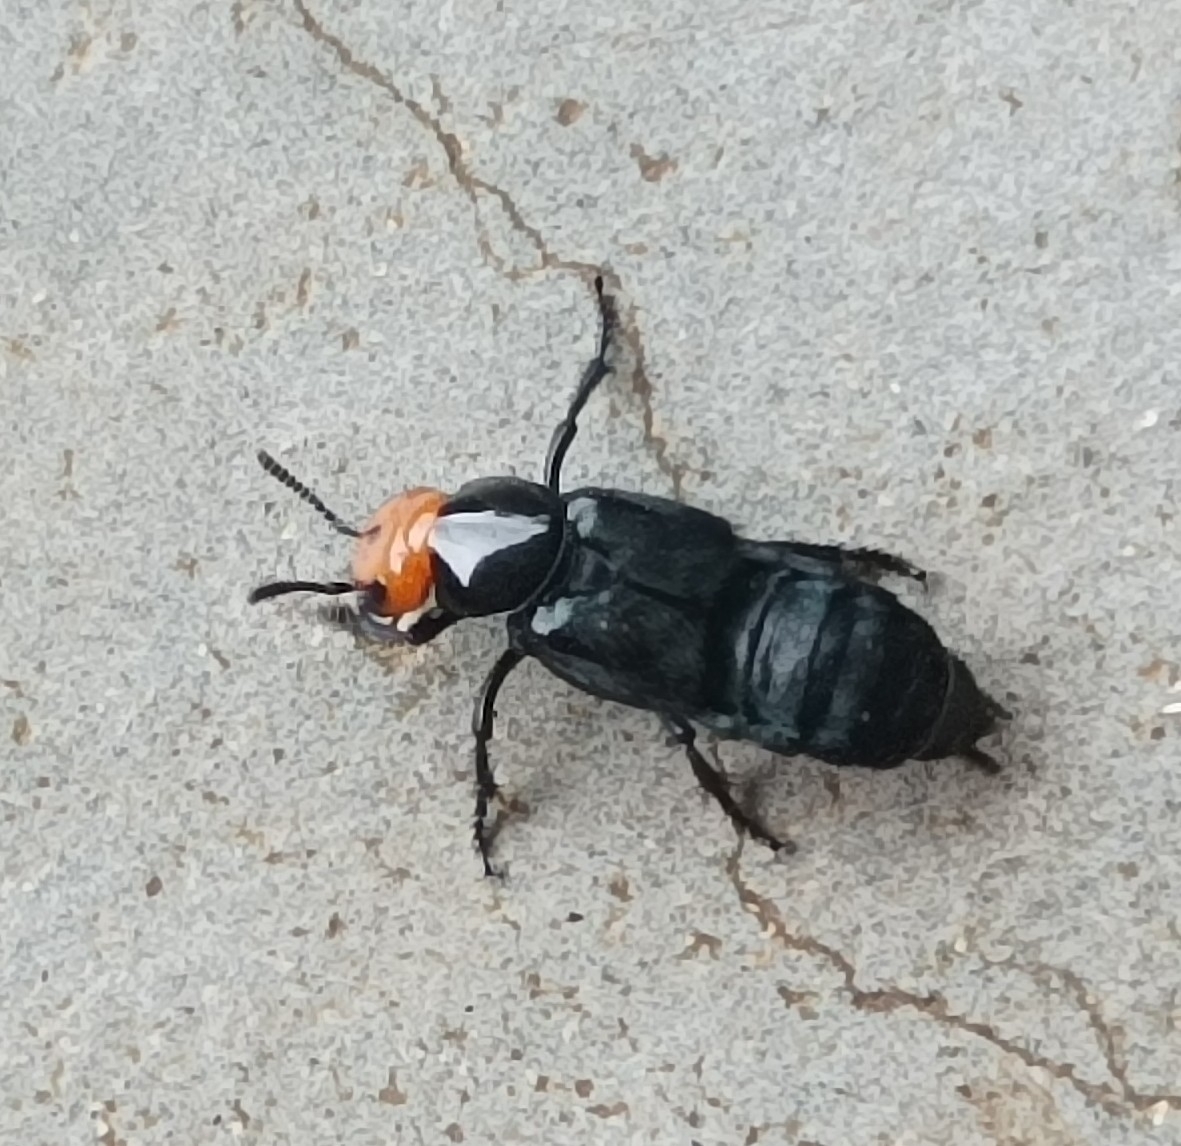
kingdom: Animalia
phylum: Arthropoda
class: Insecta
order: Coleoptera
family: Staphylinidae
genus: Creophilus
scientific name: Creophilus erythrocephalus
